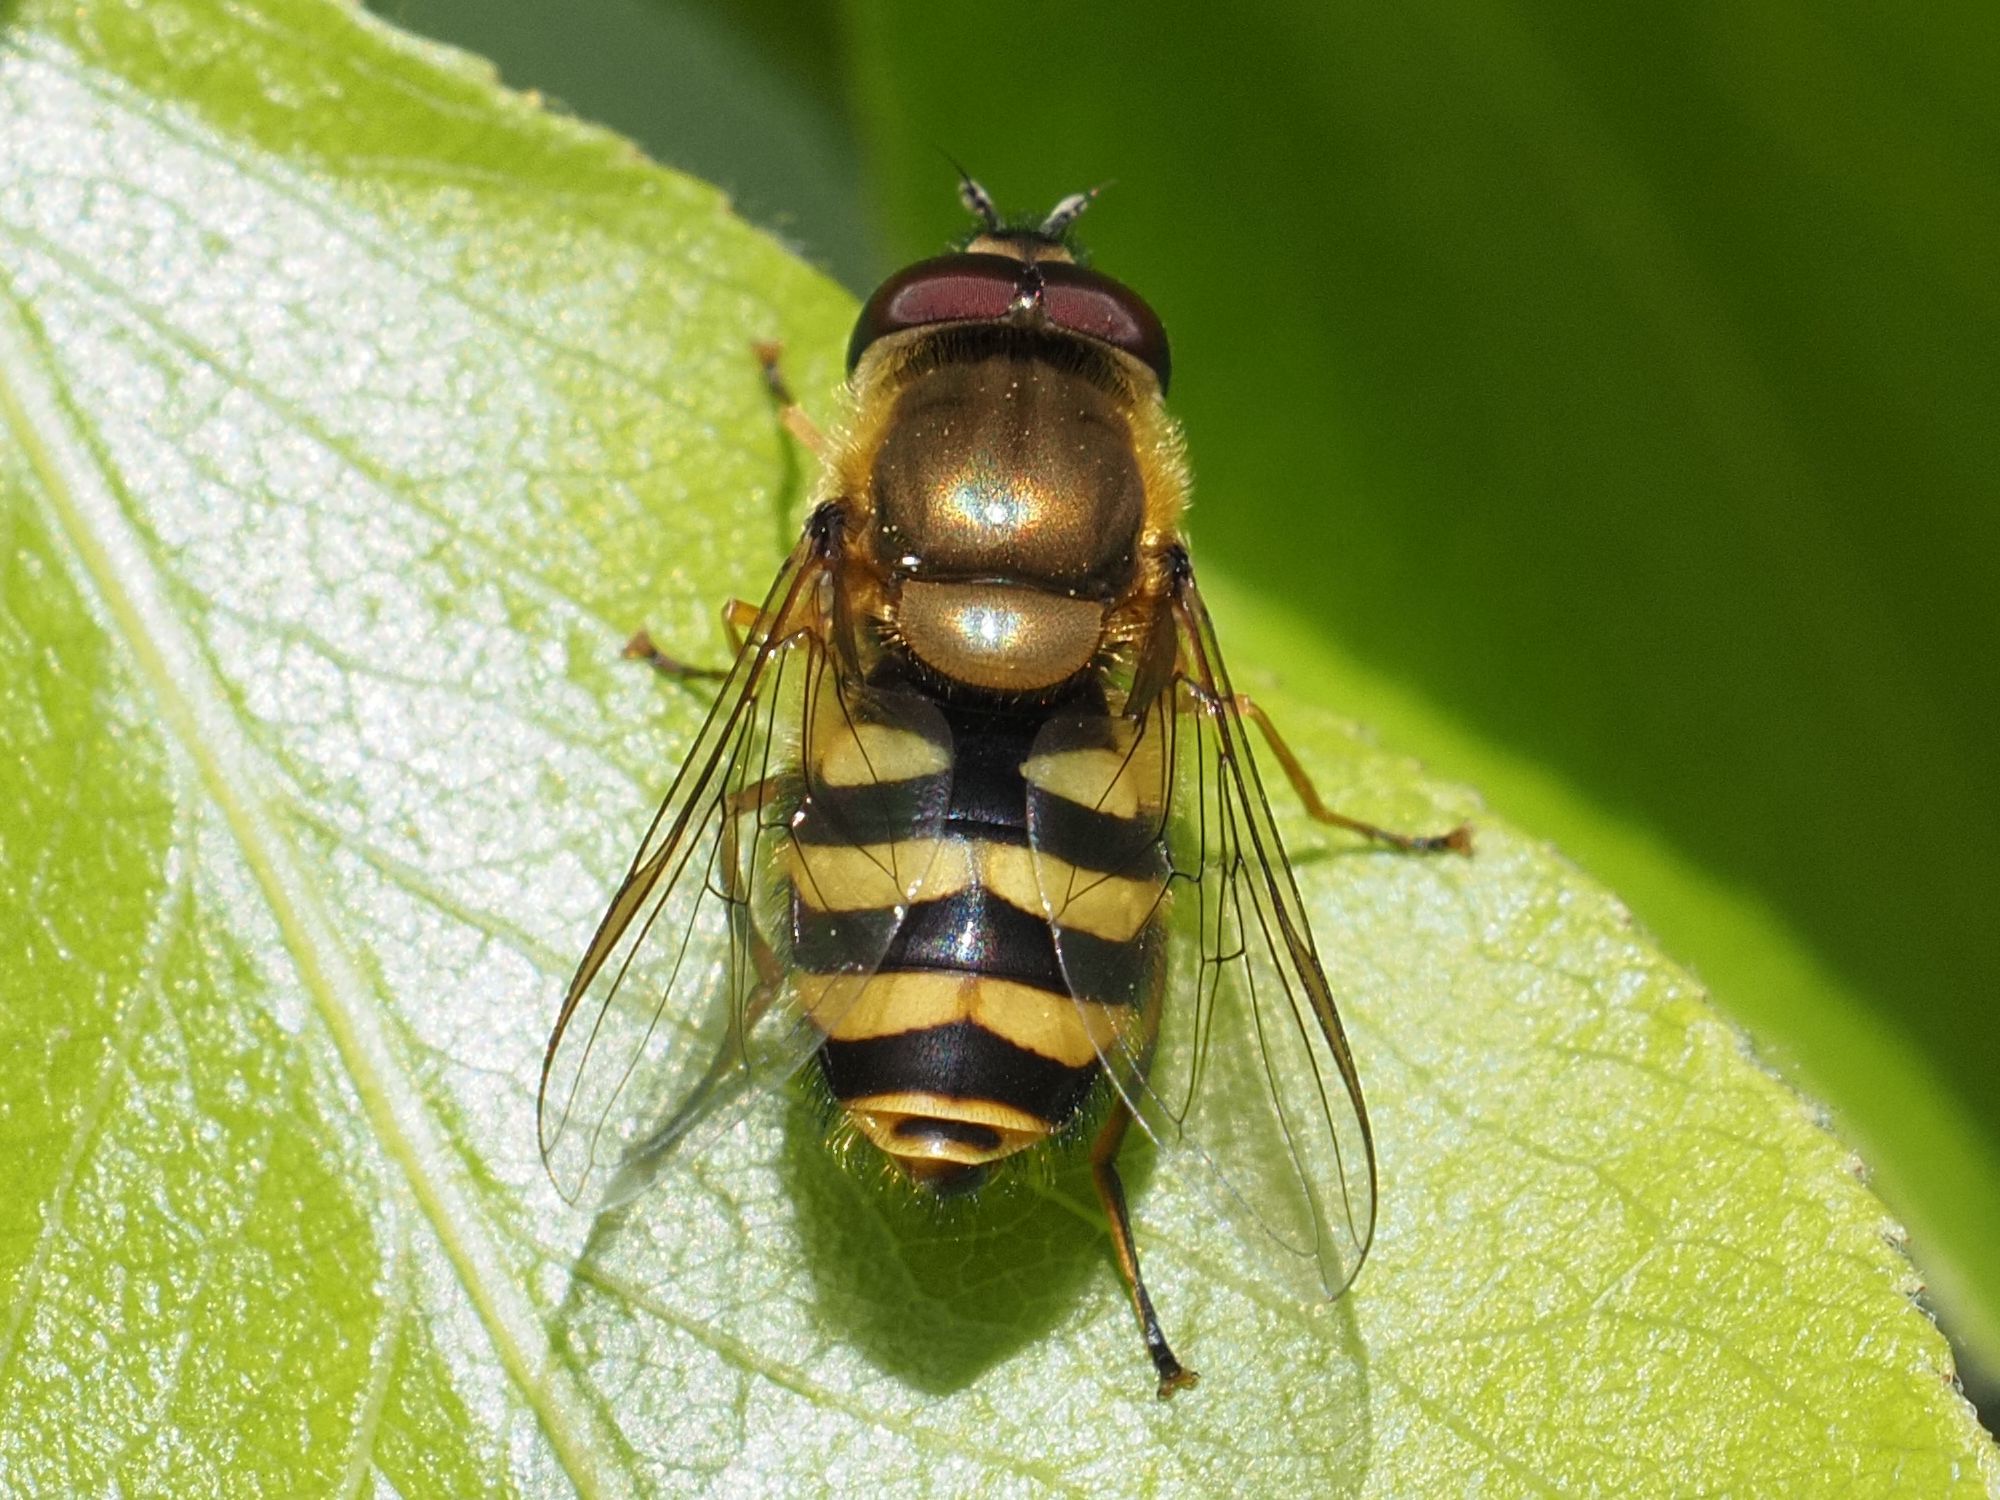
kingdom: Animalia
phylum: Arthropoda
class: Insecta
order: Diptera
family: Syrphidae
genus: Syrphus
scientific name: Syrphus
